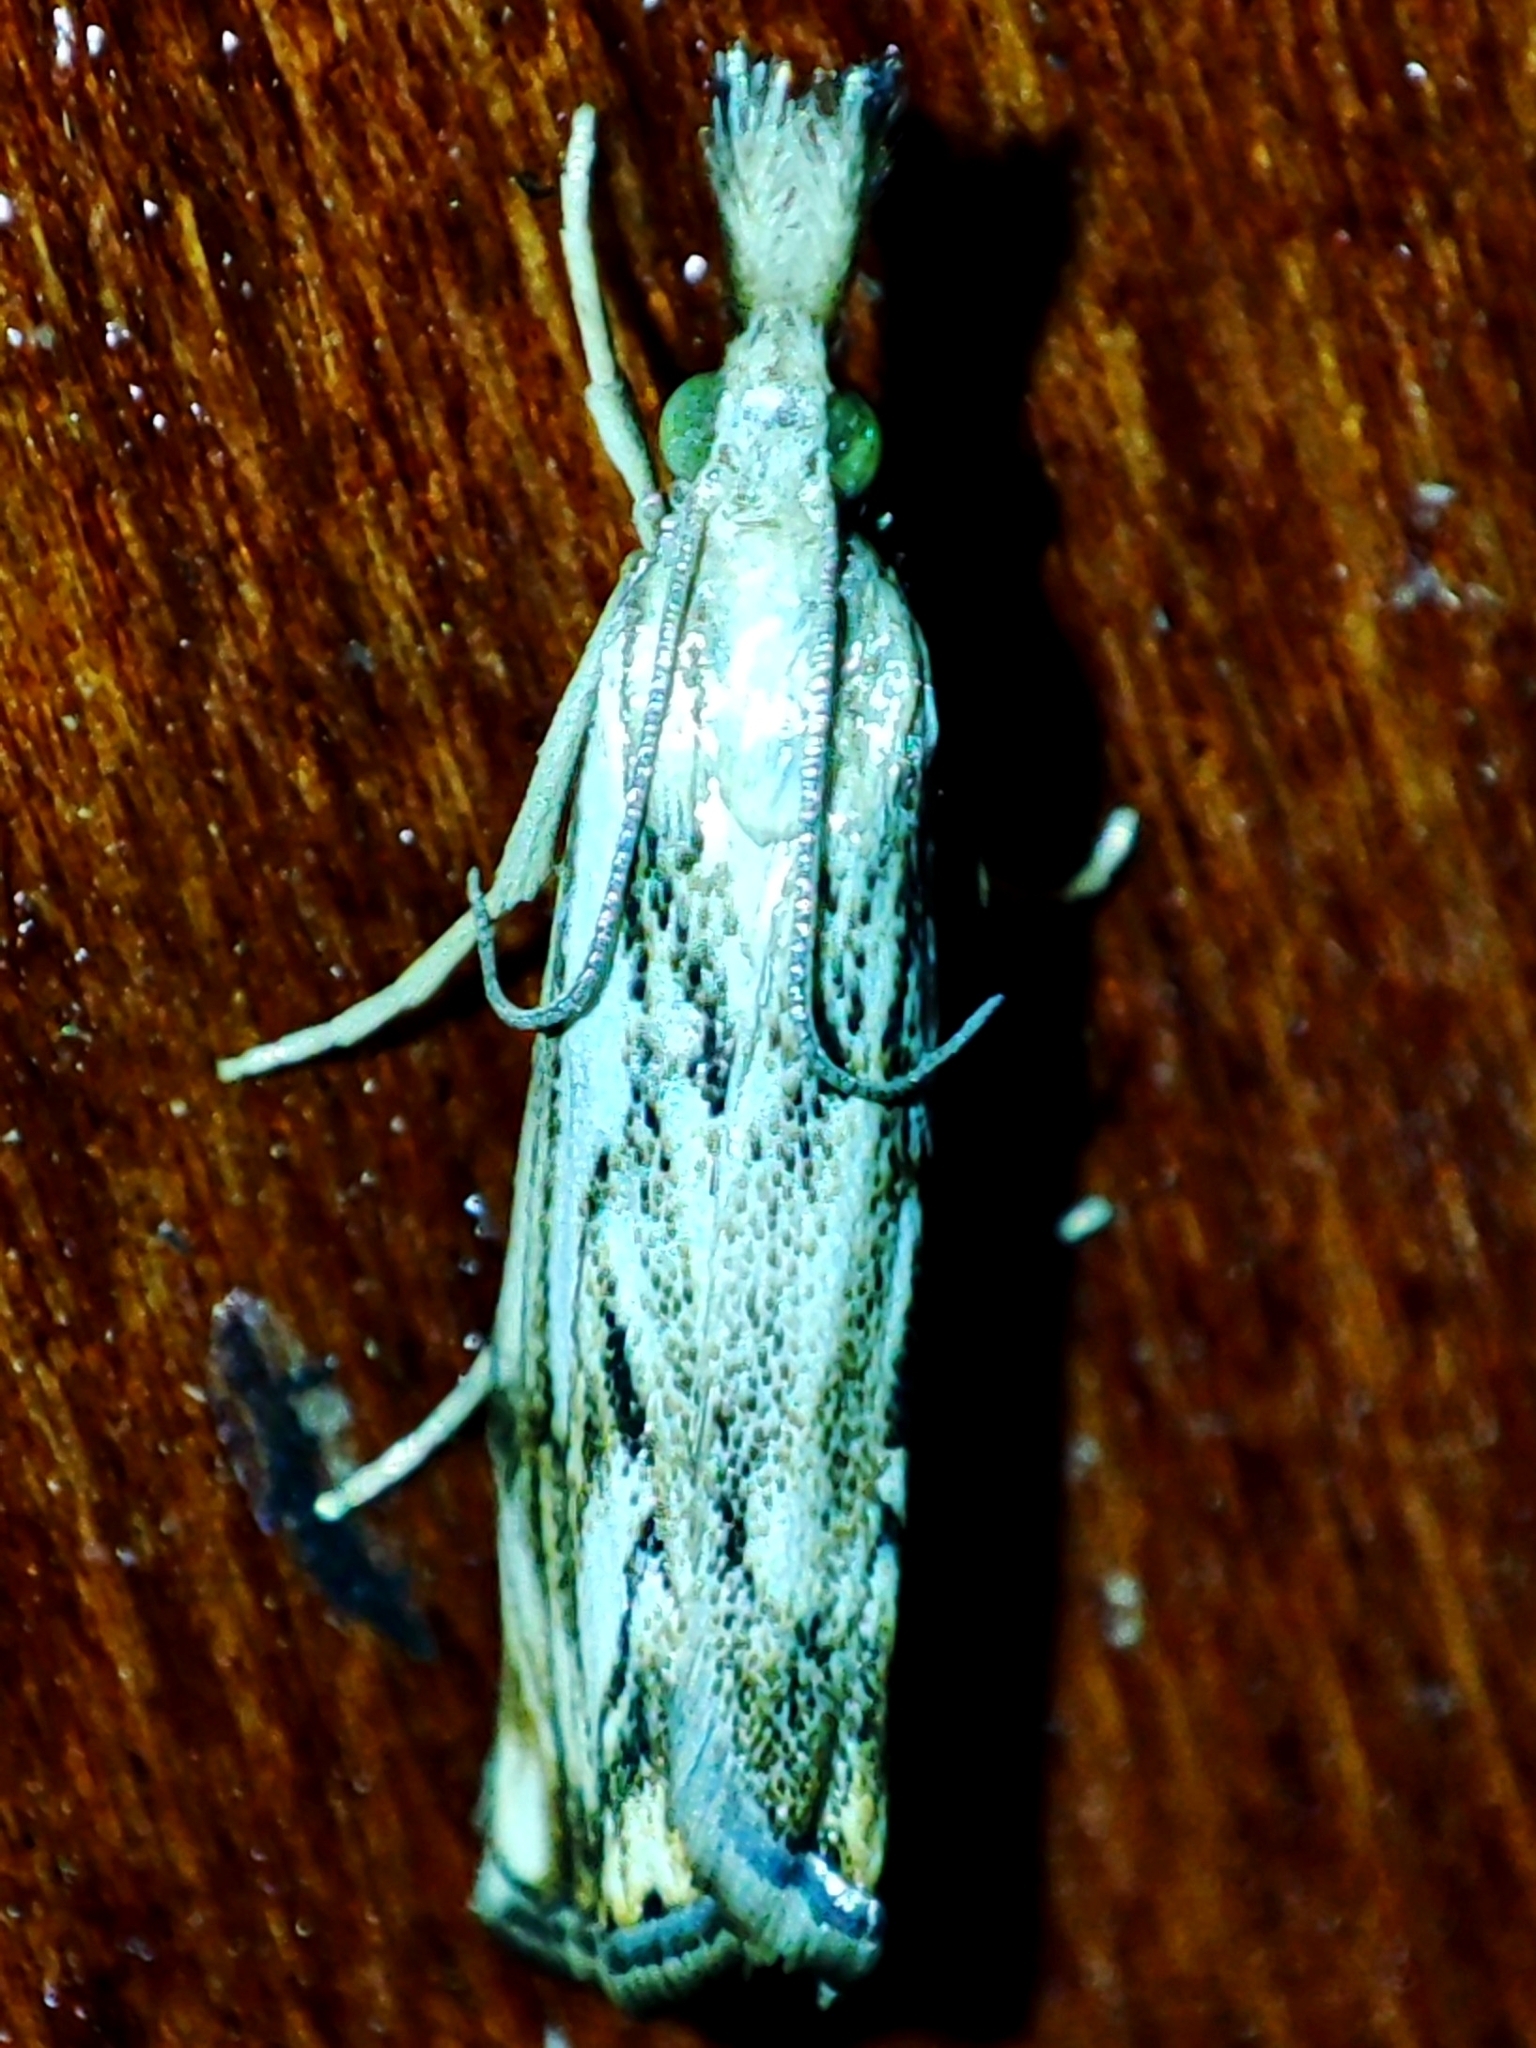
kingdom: Animalia
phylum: Arthropoda
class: Insecta
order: Lepidoptera
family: Crambidae
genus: Catoptria
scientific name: Catoptria falsella
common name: Chequered grass-veneer
